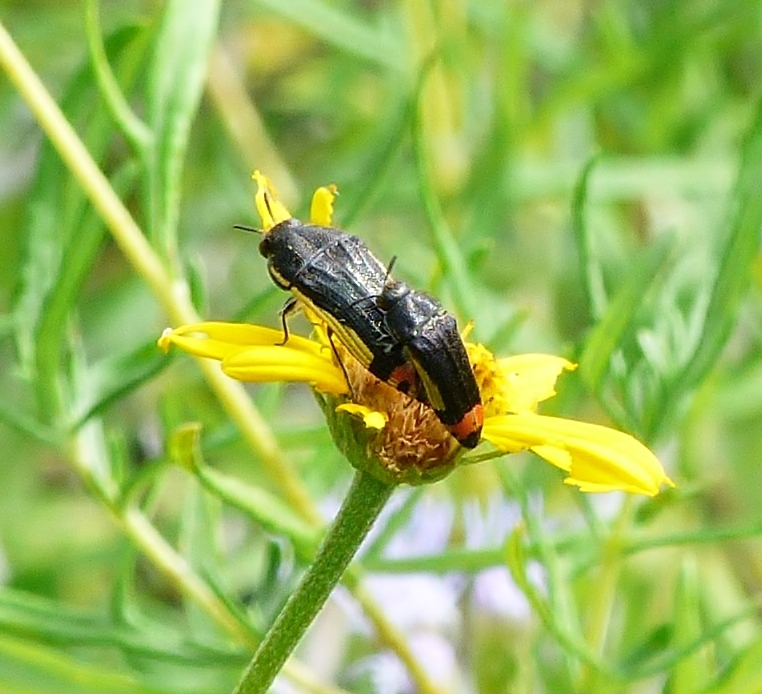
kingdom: Animalia
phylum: Arthropoda
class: Insecta
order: Coleoptera
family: Buprestidae
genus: Acmaeodera
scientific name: Acmaeodera flavomarginata
